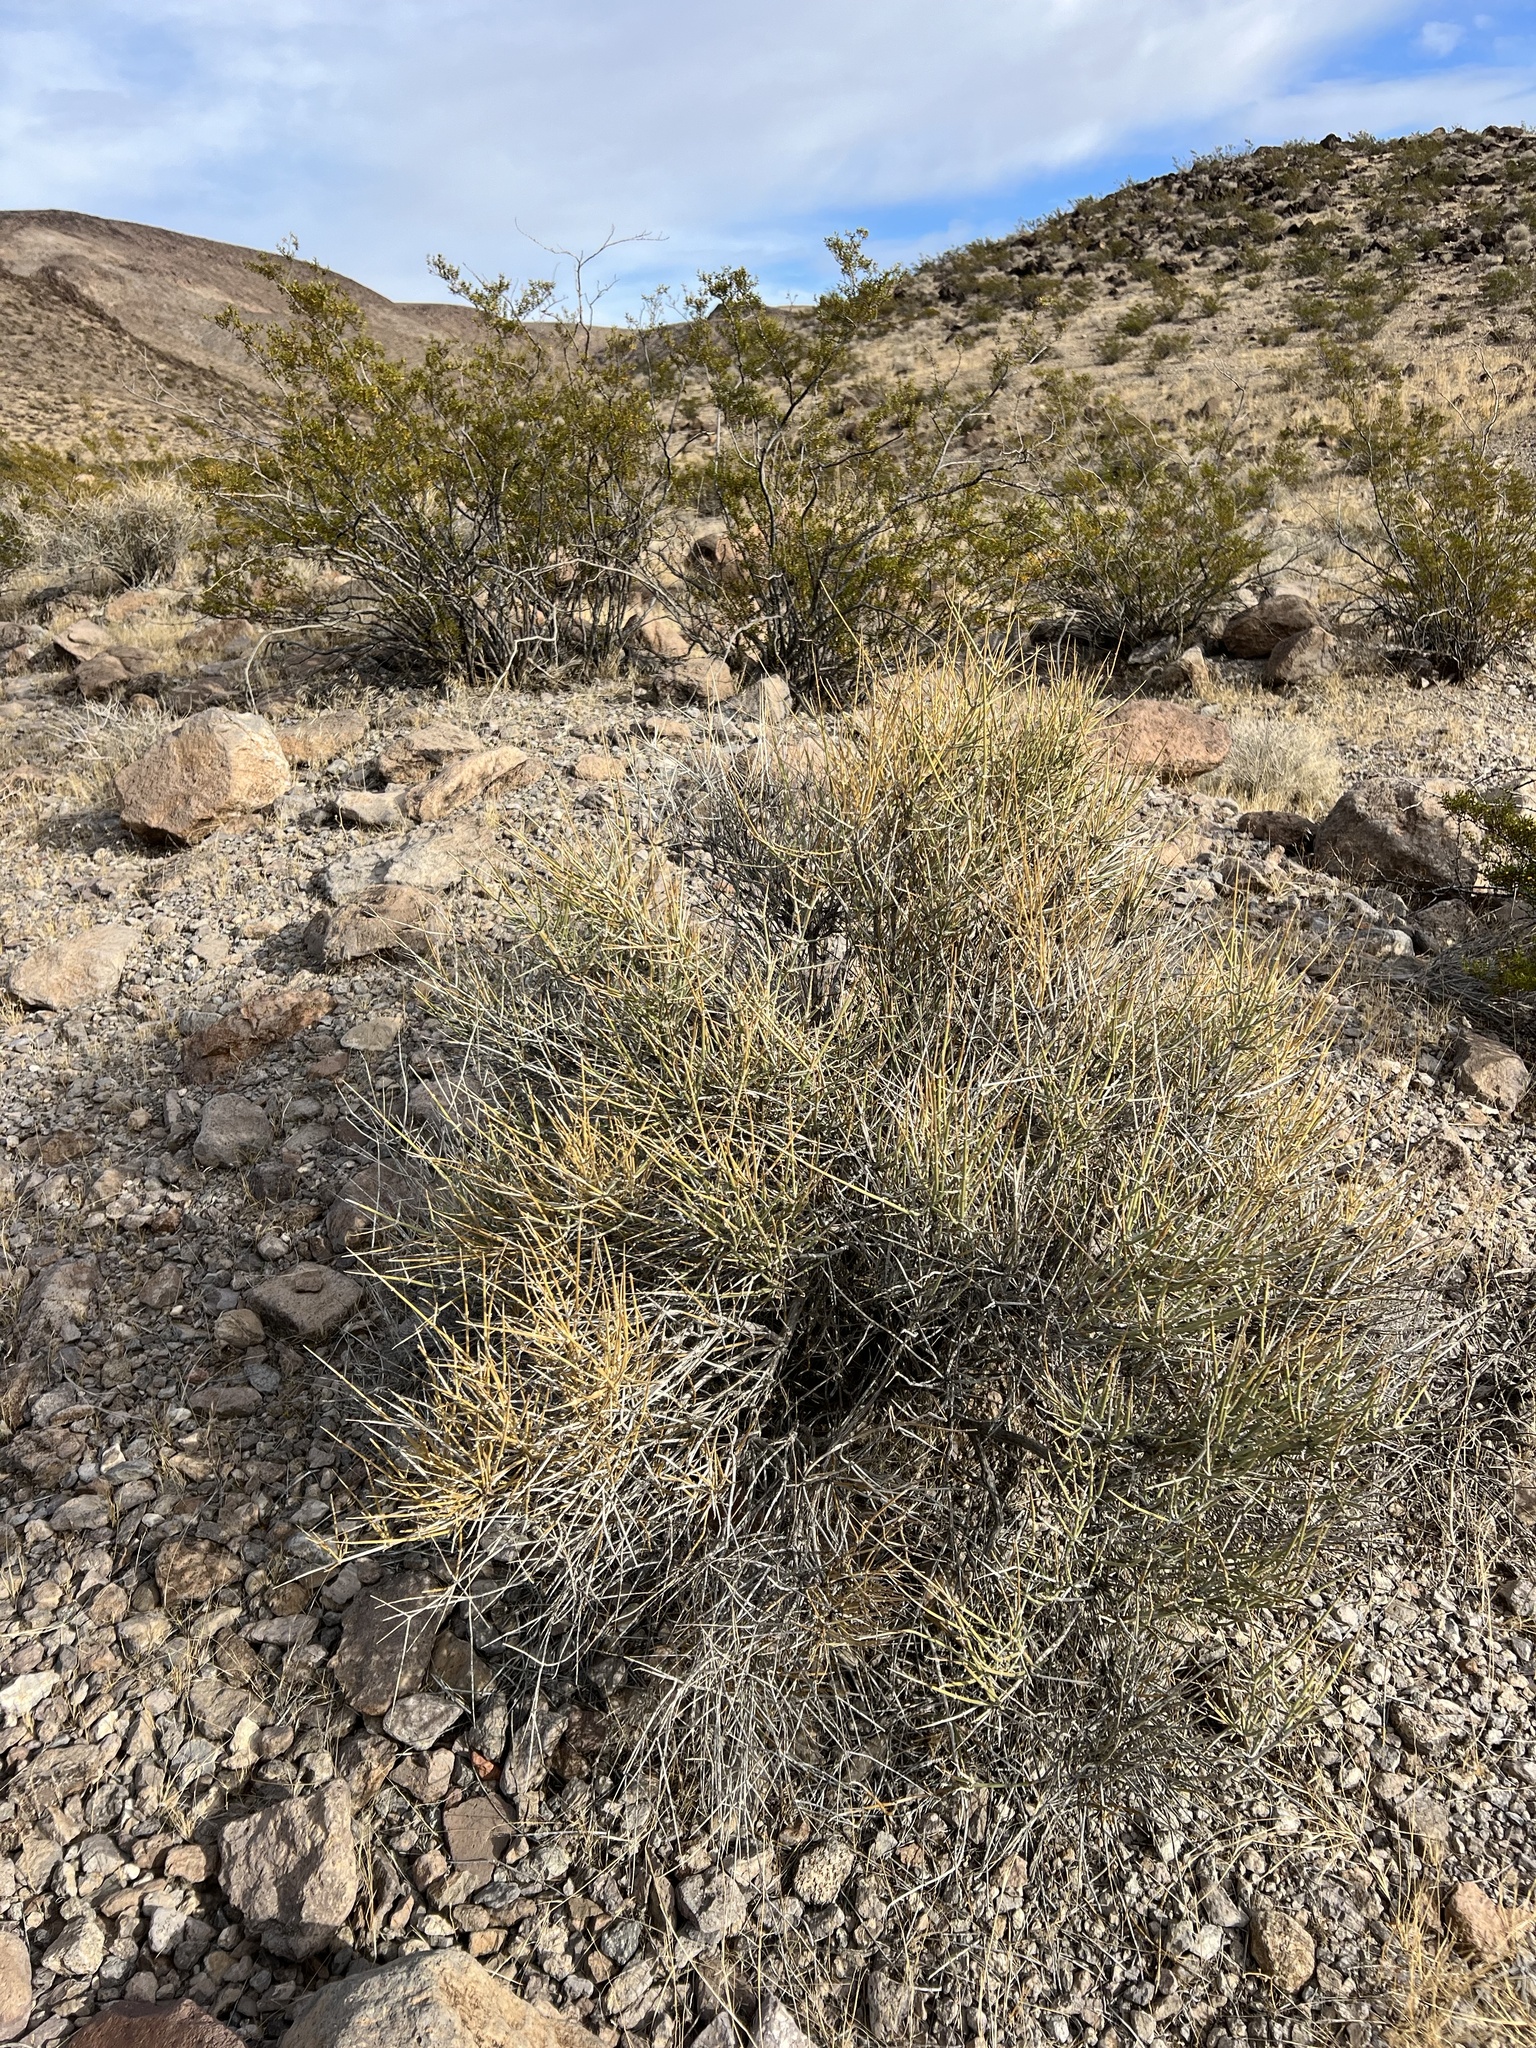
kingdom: Plantae
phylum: Tracheophyta
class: Gnetopsida
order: Ephedrales
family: Ephedraceae
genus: Ephedra
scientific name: Ephedra nevadensis
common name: Gray ephedra
